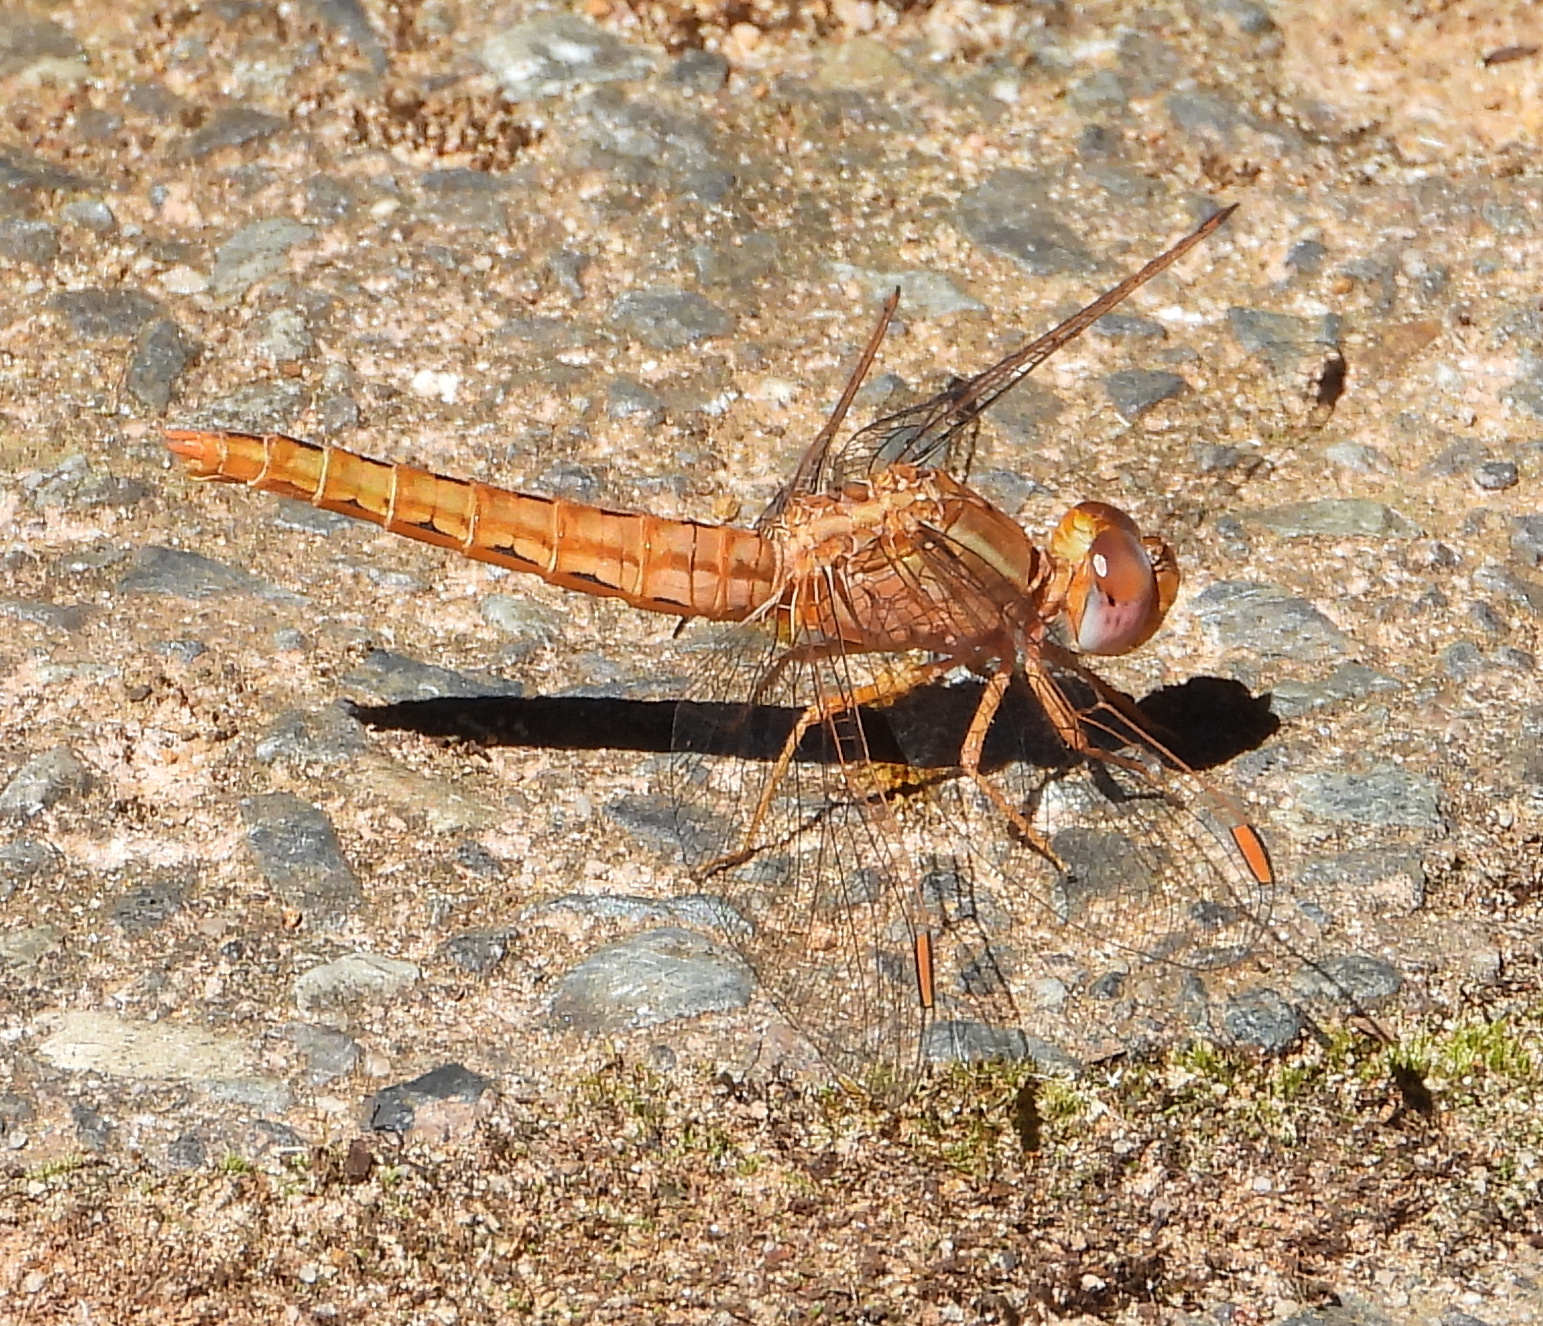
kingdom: Animalia
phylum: Arthropoda
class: Insecta
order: Odonata
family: Libellulidae
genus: Crocothemis
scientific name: Crocothemis sanguinolenta
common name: Little scarlet
